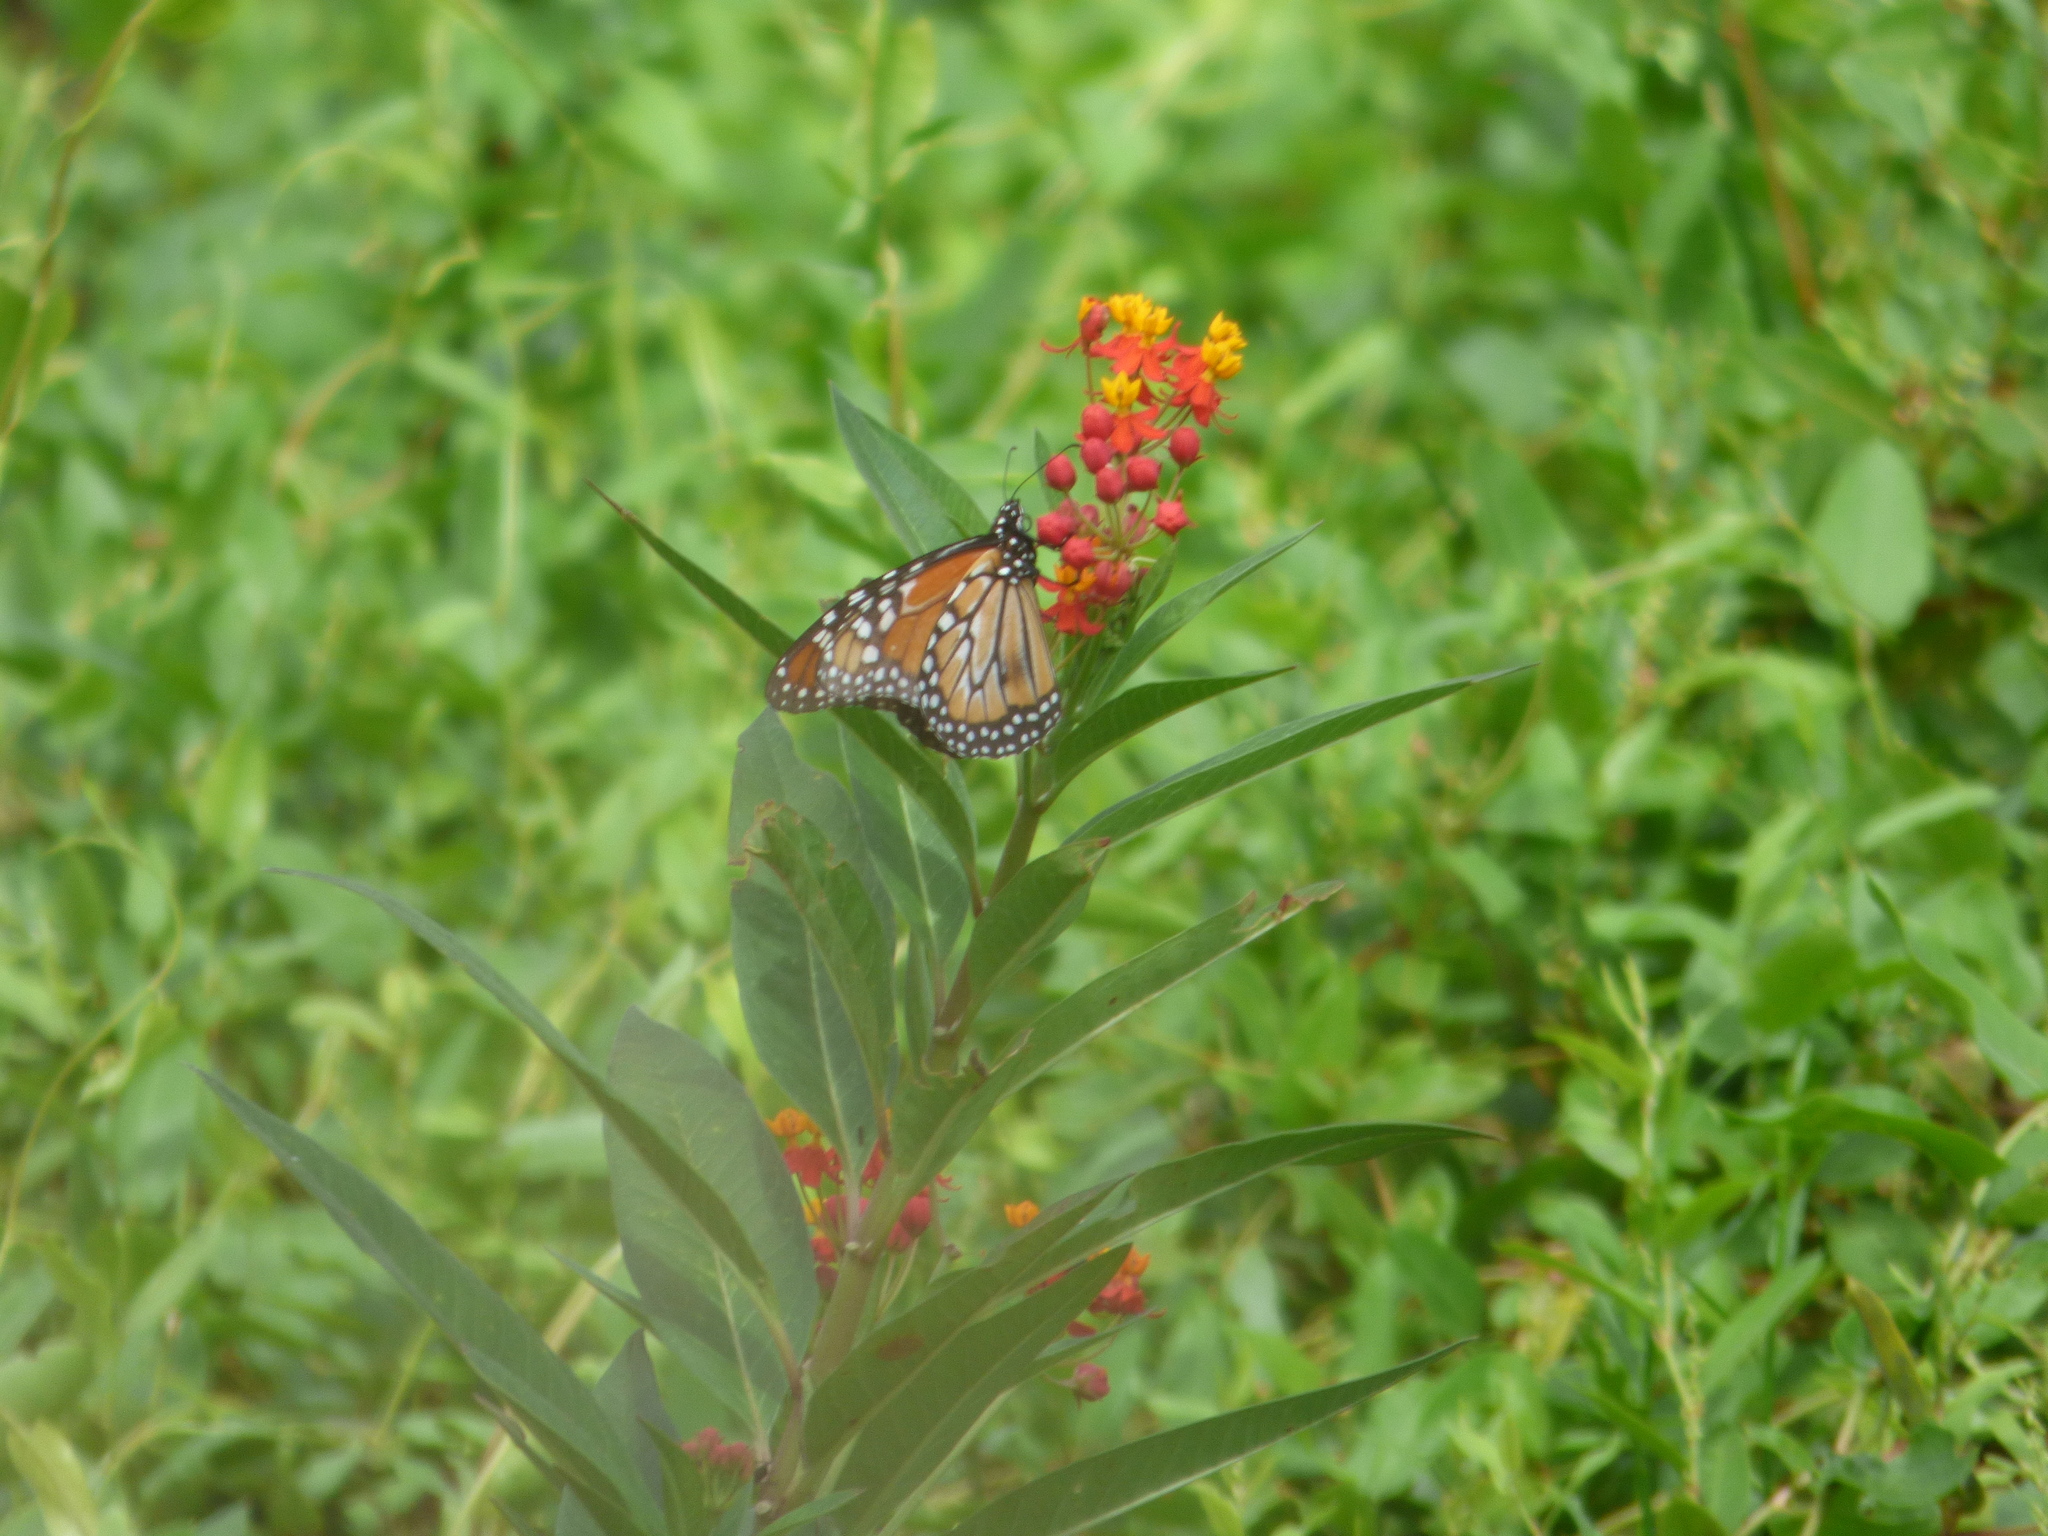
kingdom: Animalia
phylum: Arthropoda
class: Insecta
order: Lepidoptera
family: Nymphalidae
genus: Danaus
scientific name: Danaus erippus
